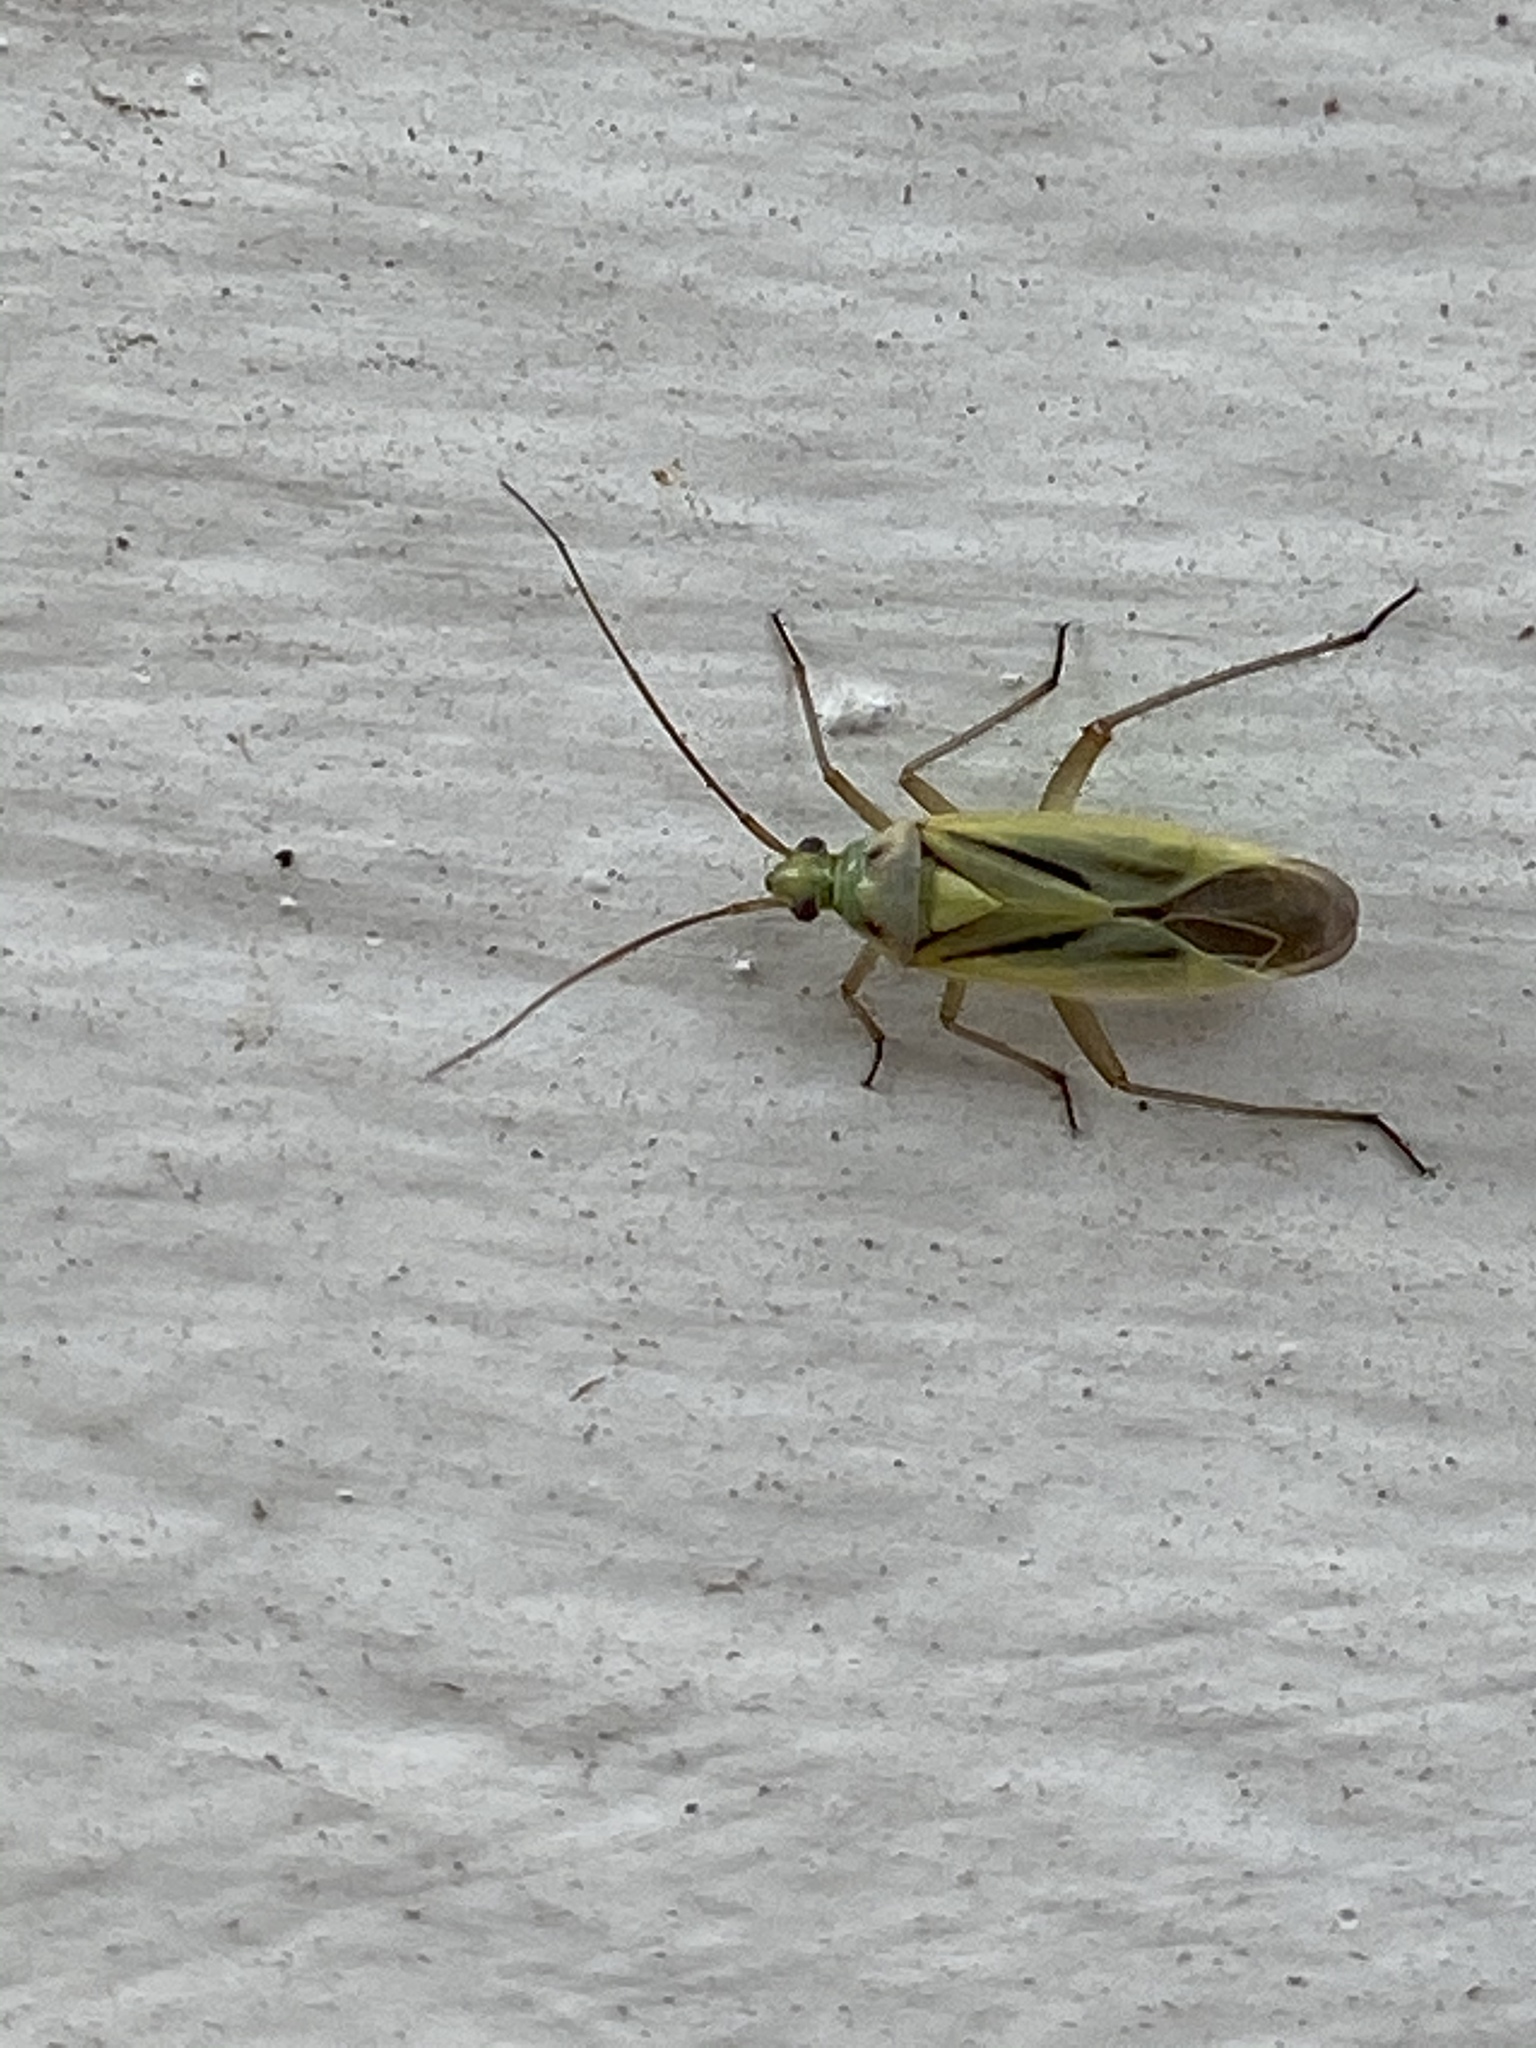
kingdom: Animalia
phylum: Arthropoda
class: Insecta
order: Hemiptera
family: Miridae
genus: Stenotus
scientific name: Stenotus binotatus
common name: Plant bug
